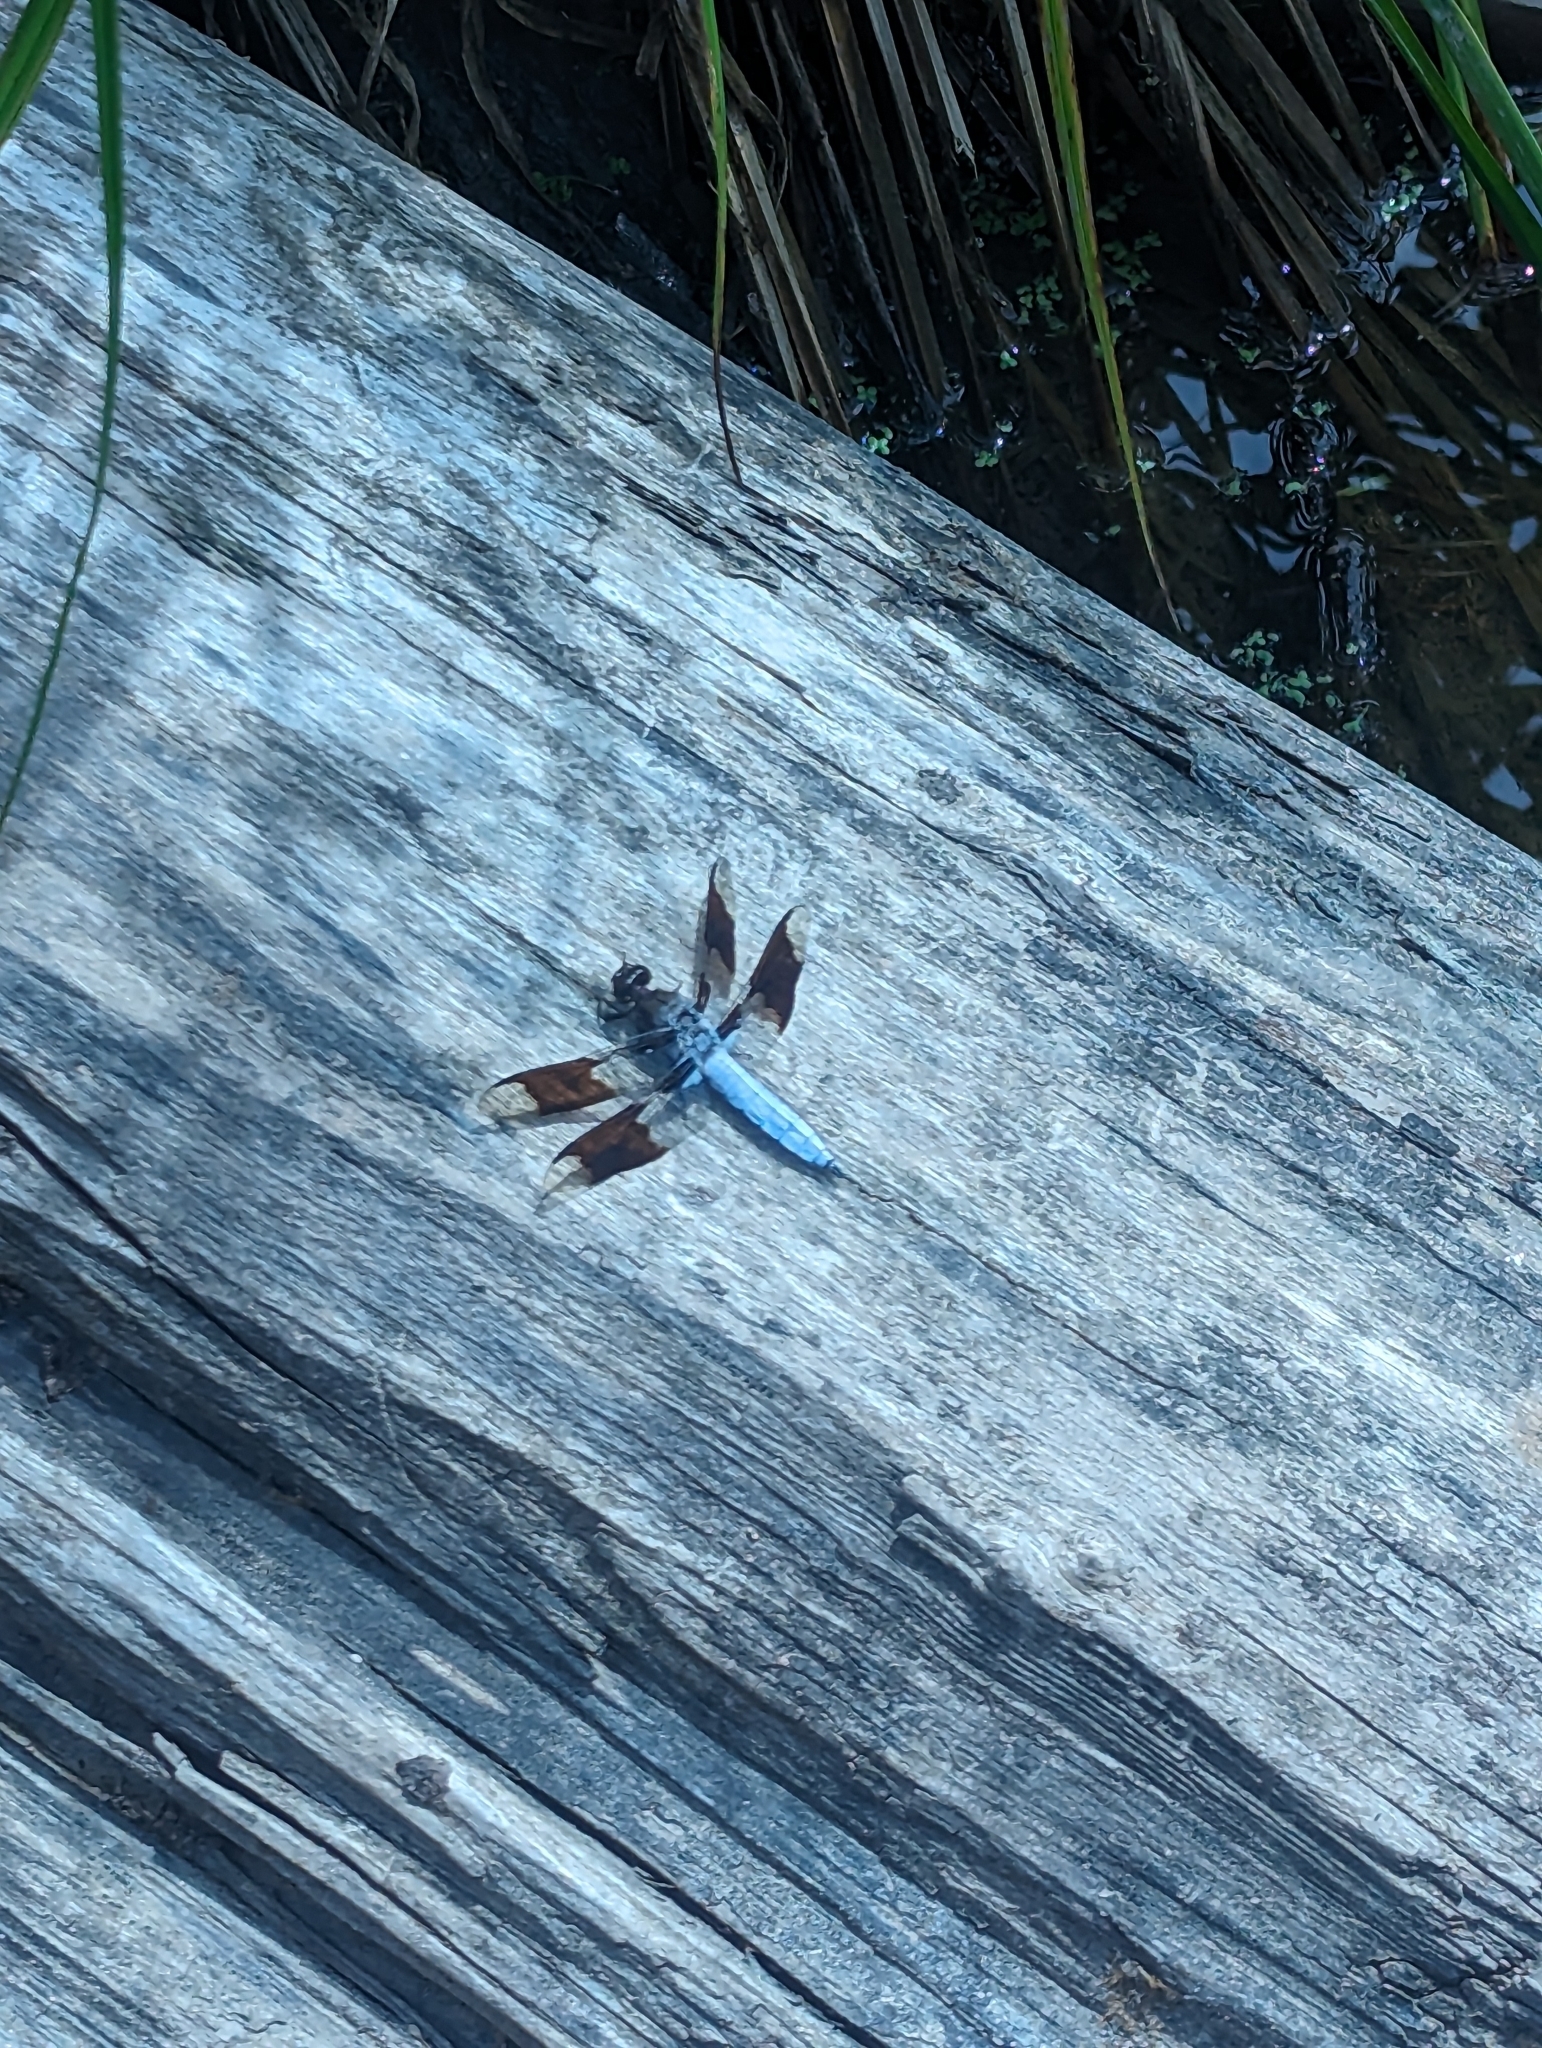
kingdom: Animalia
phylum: Arthropoda
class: Insecta
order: Odonata
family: Libellulidae
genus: Plathemis
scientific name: Plathemis lydia
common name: Common whitetail
